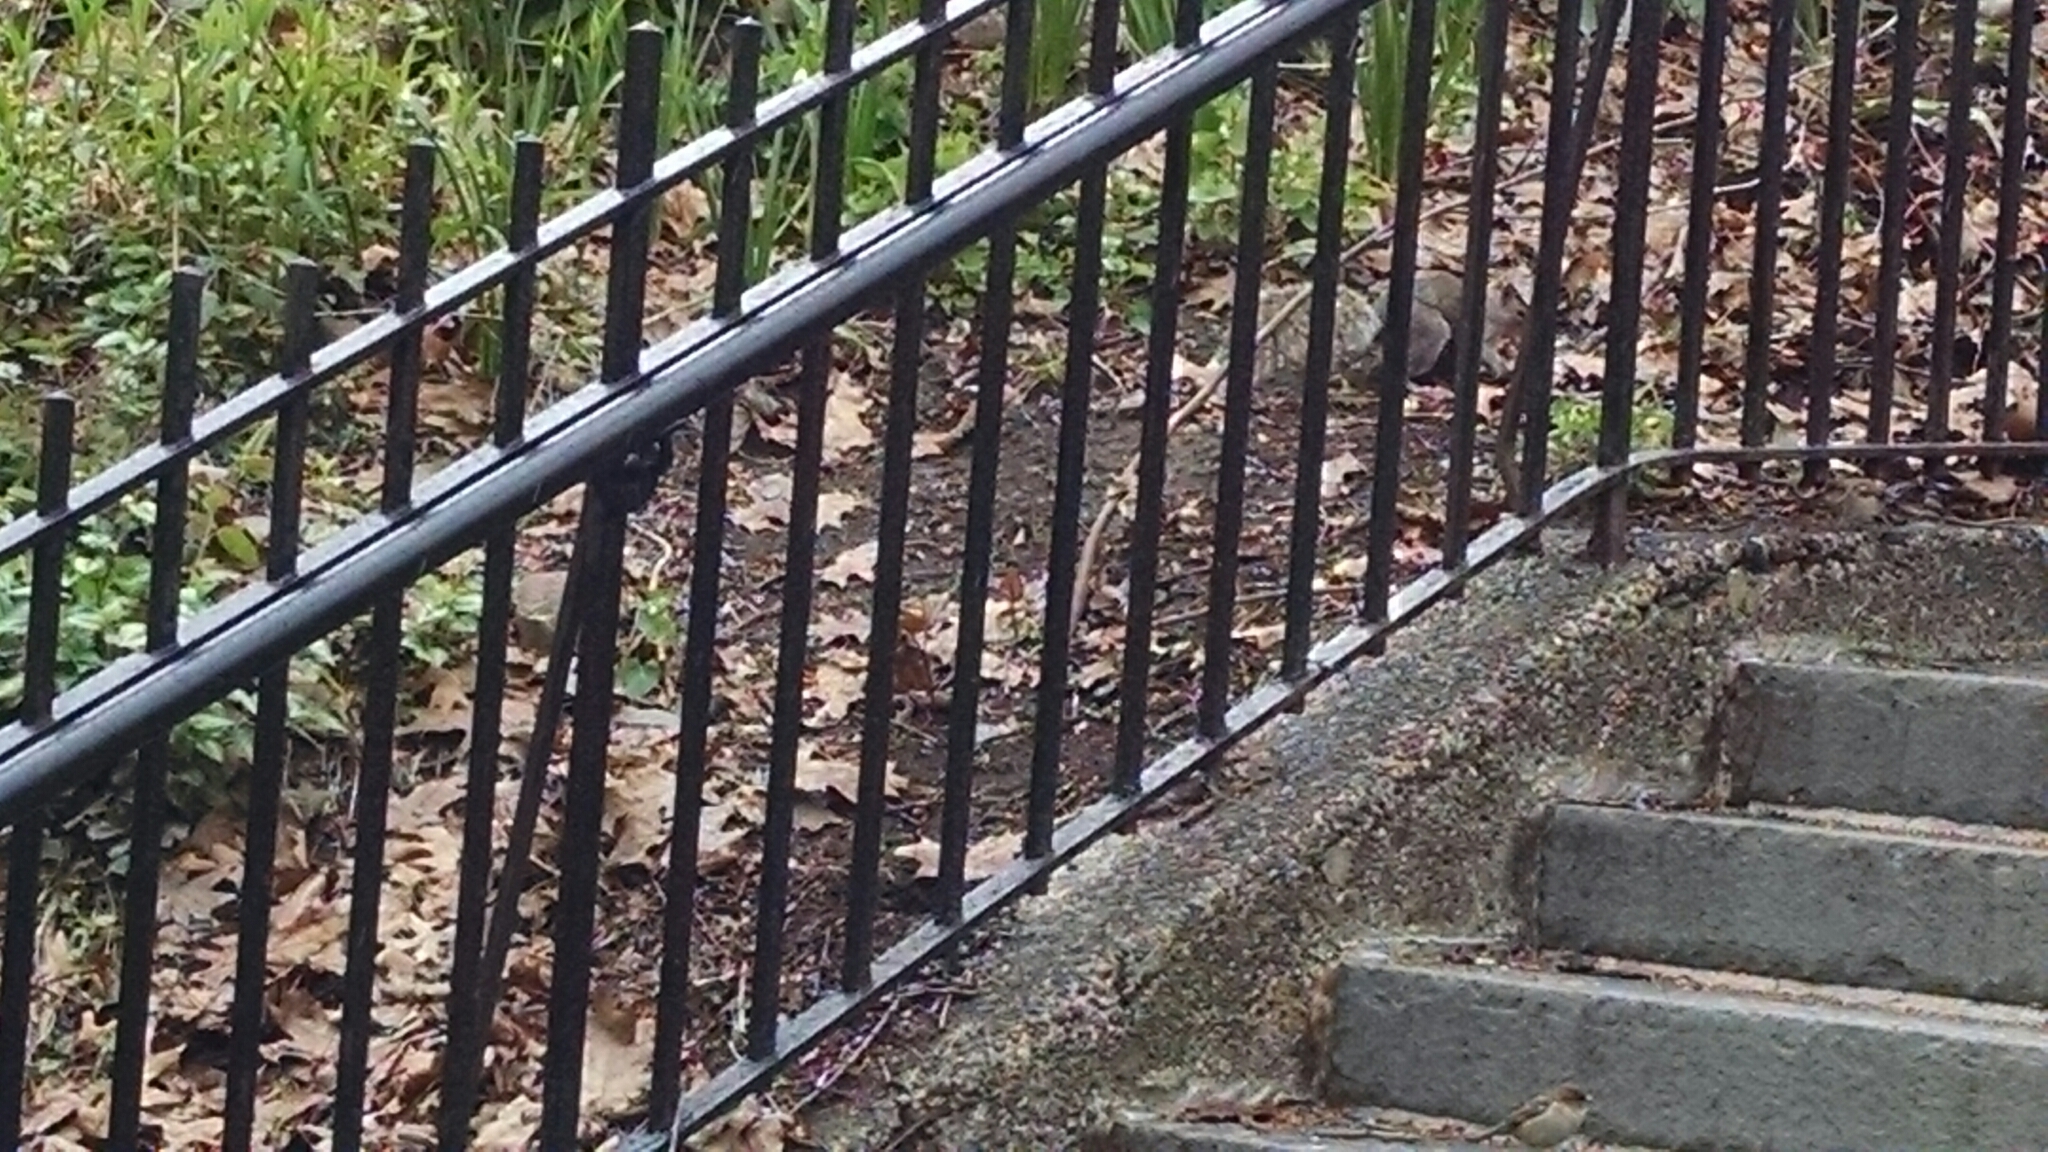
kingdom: Animalia
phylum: Chordata
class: Mammalia
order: Rodentia
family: Sciuridae
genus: Sciurus
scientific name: Sciurus carolinensis
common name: Eastern gray squirrel
